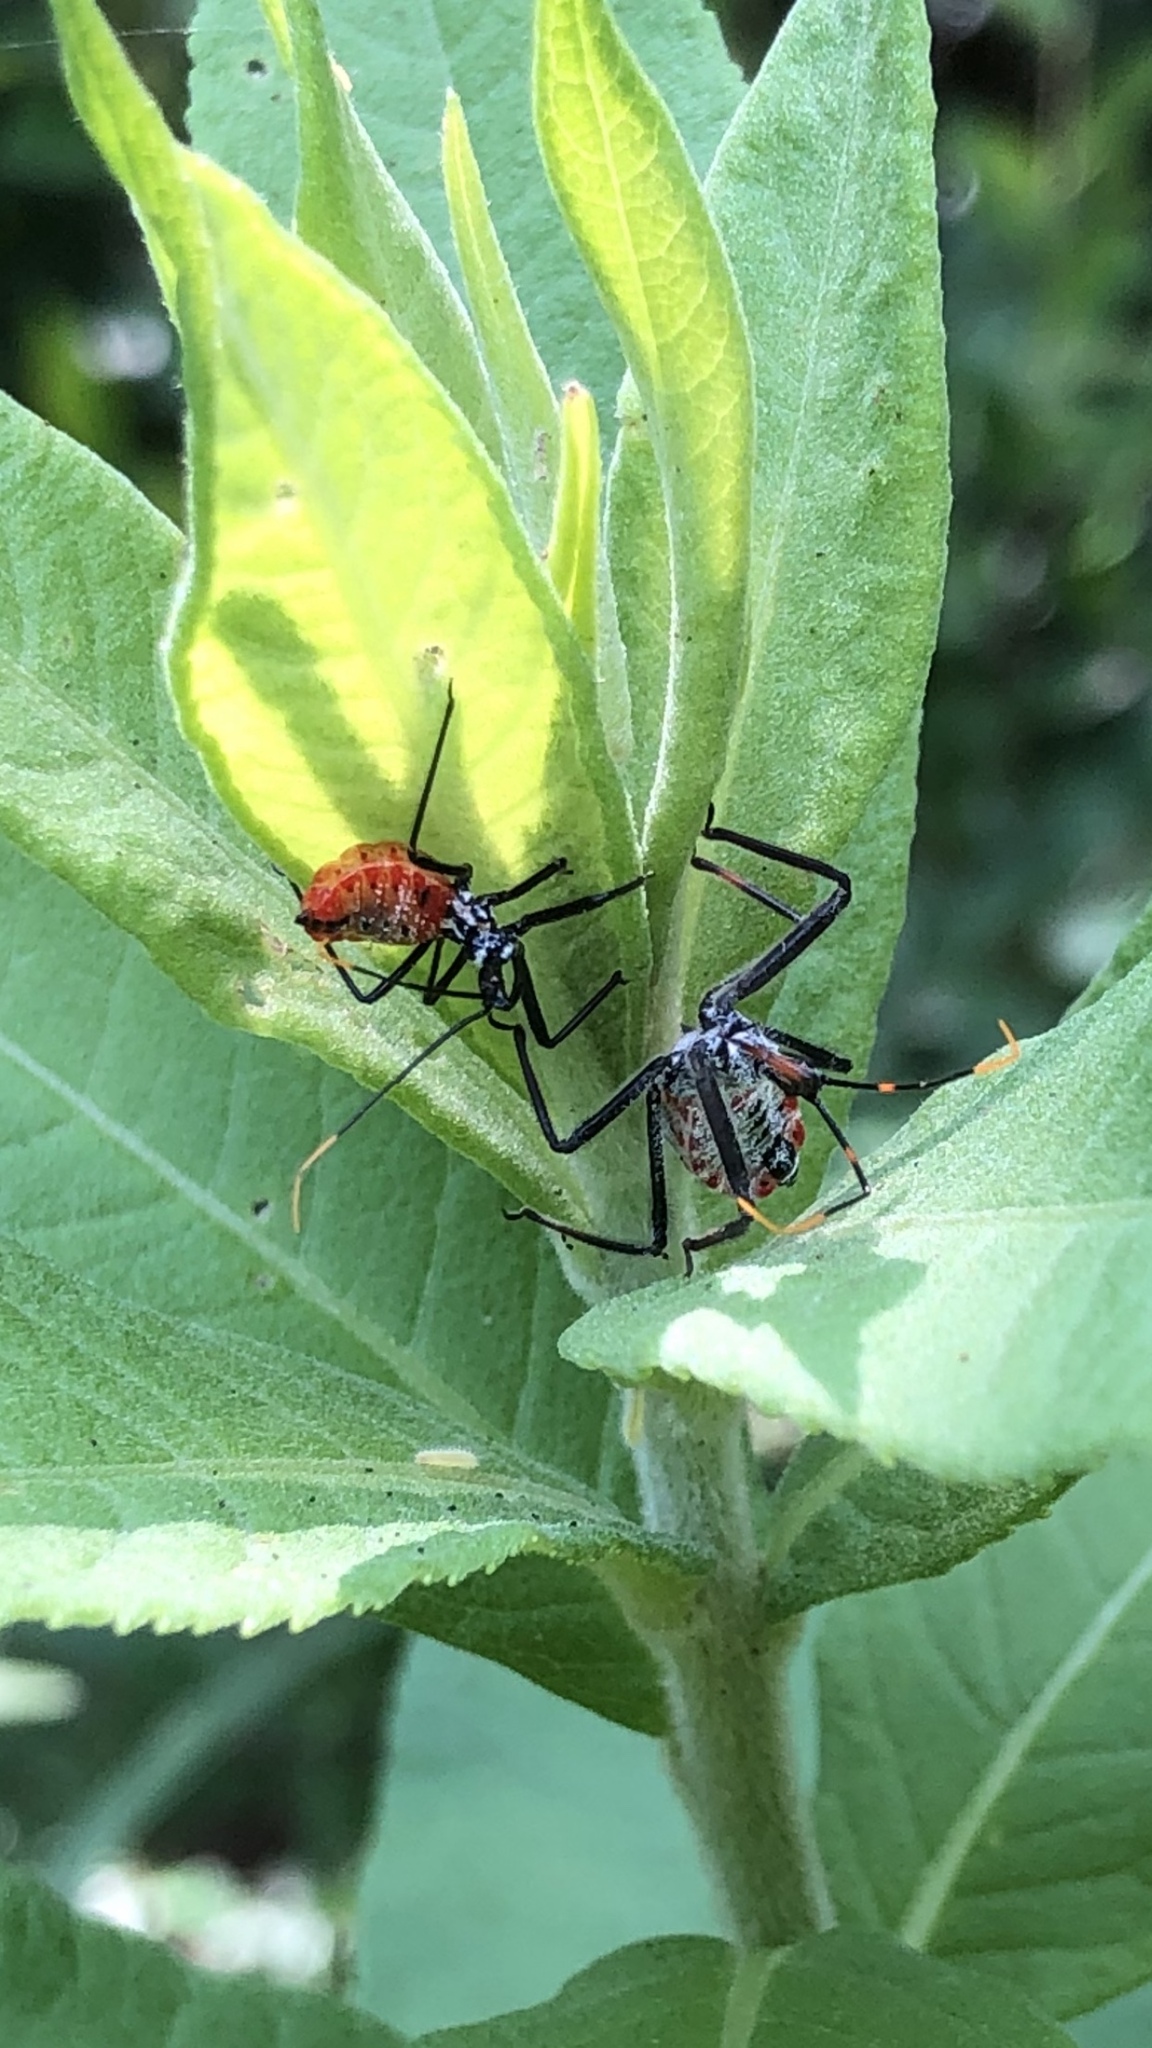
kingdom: Animalia
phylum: Arthropoda
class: Insecta
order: Hemiptera
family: Reduviidae
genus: Arilus
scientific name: Arilus cristatus
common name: North american wheel bug
